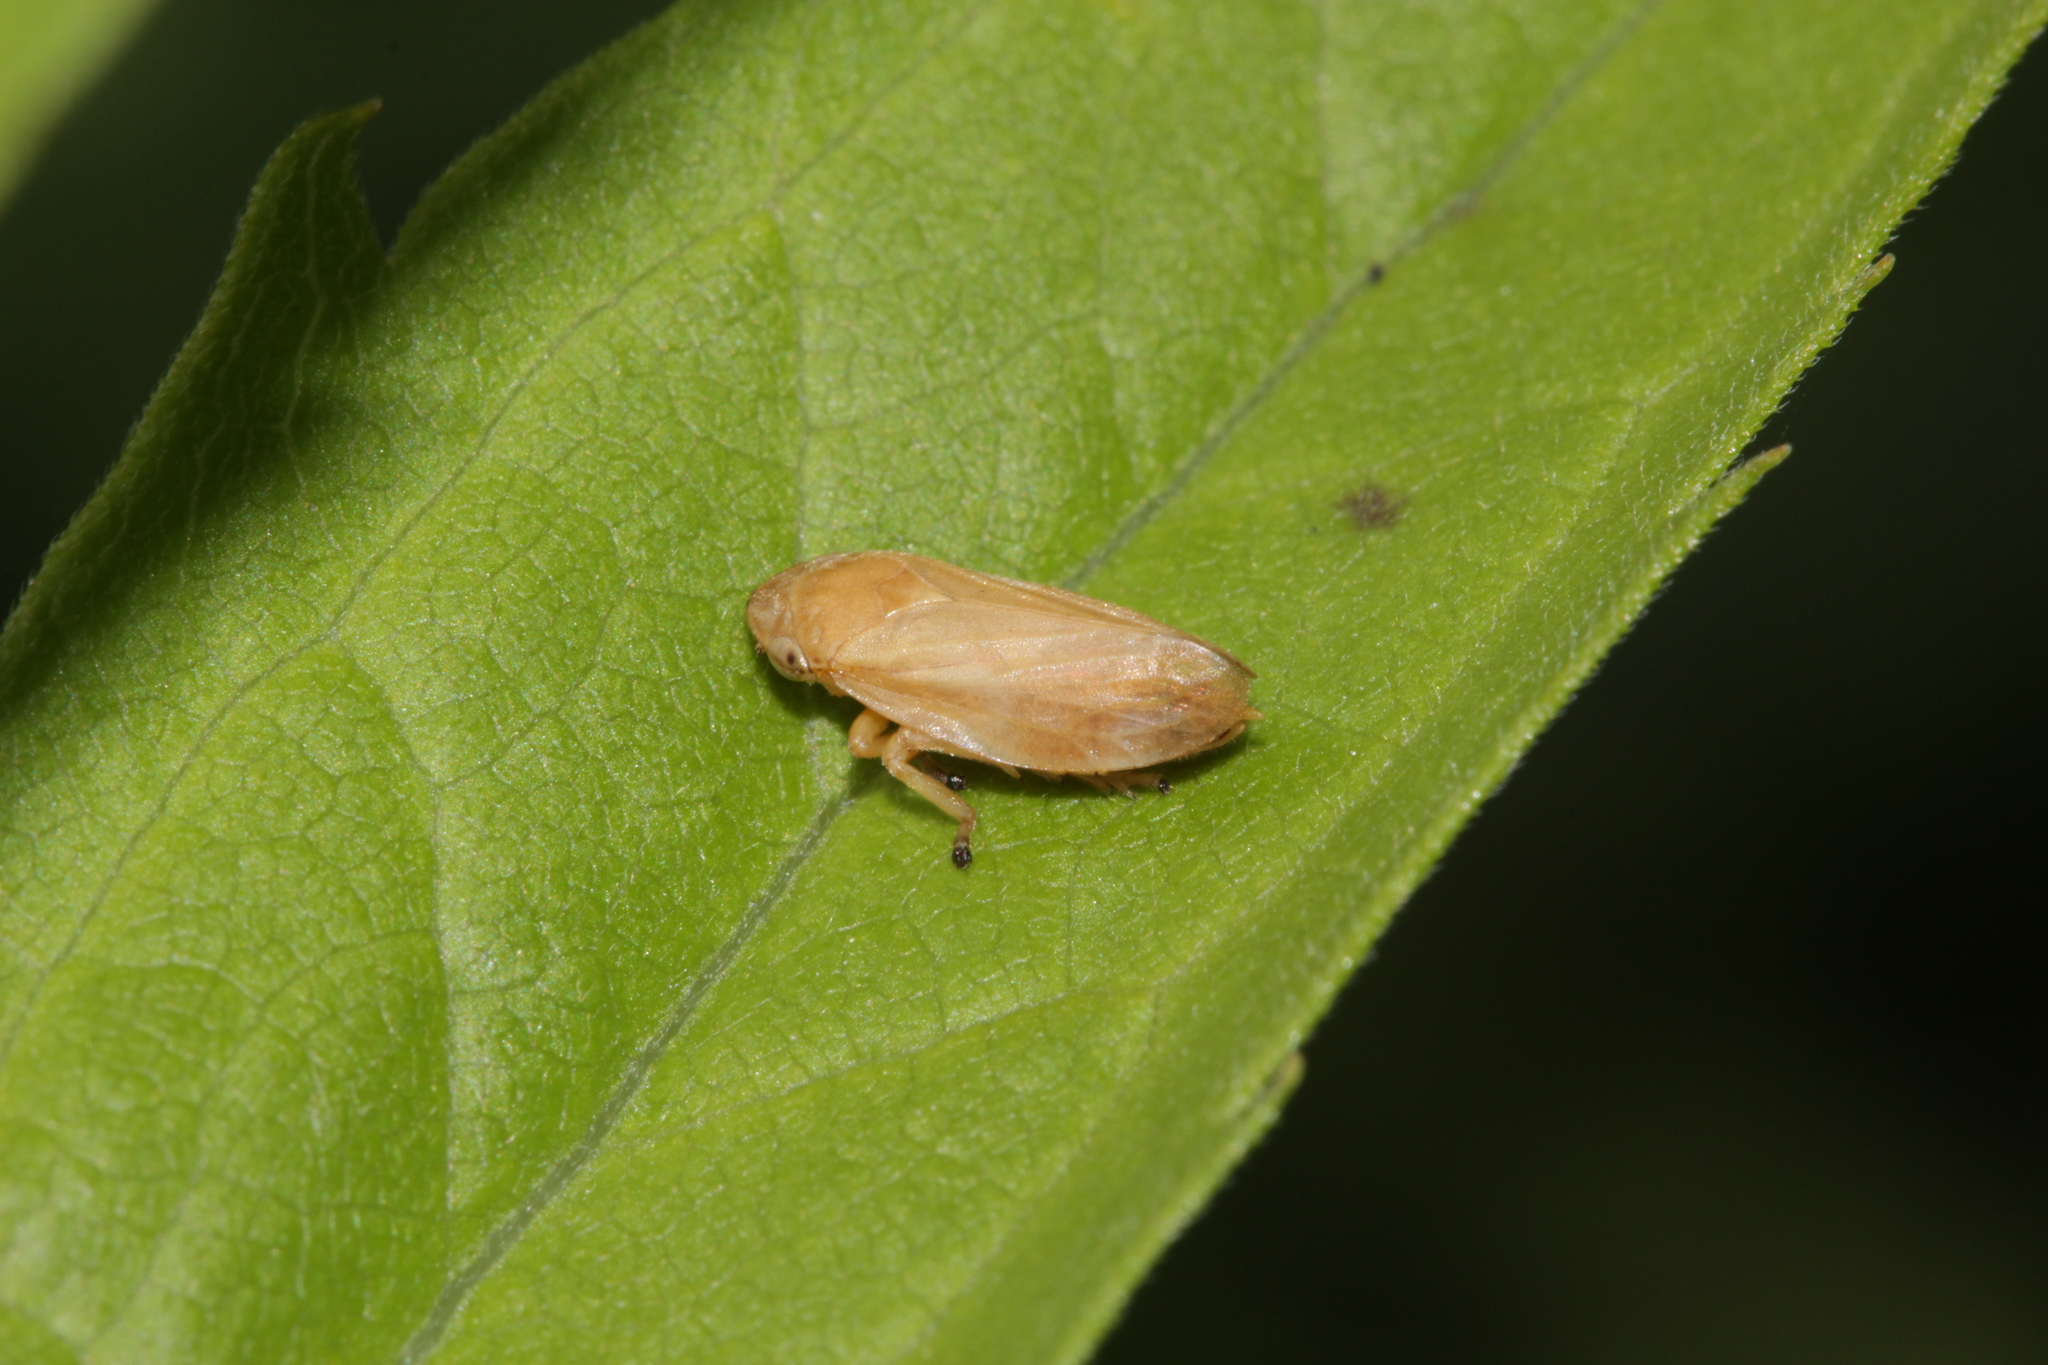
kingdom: Animalia
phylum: Arthropoda
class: Insecta
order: Hemiptera
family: Aphrophoridae
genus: Philaenus
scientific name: Philaenus spumarius
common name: Meadow spittlebug
